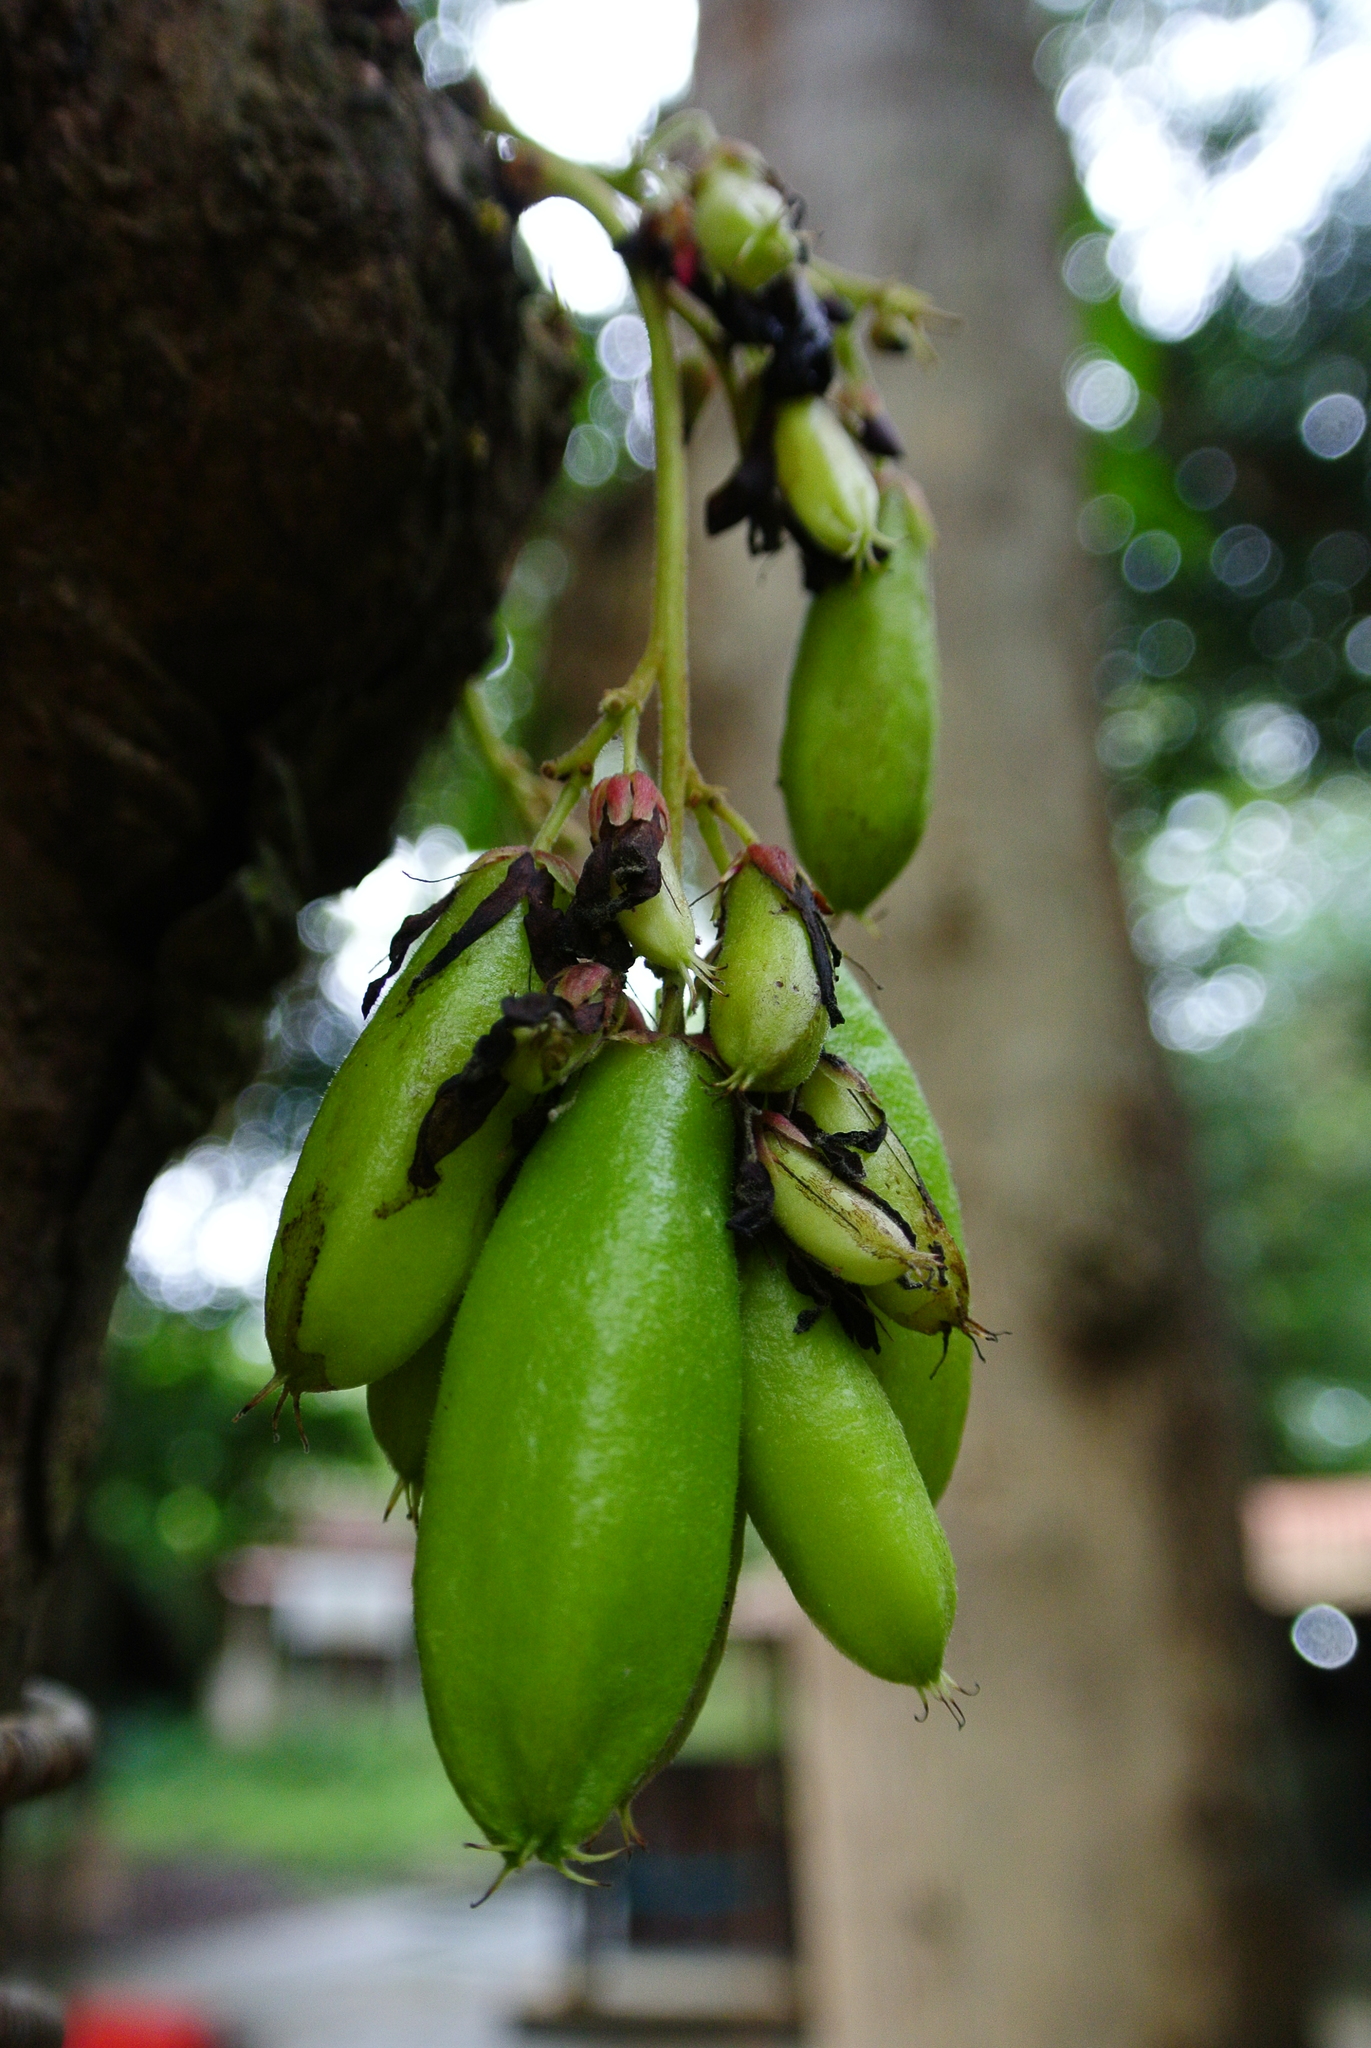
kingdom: Plantae
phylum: Tracheophyta
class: Magnoliopsida
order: Oxalidales
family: Oxalidaceae
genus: Averrhoa
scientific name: Averrhoa bilimbi
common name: Bilimbi
